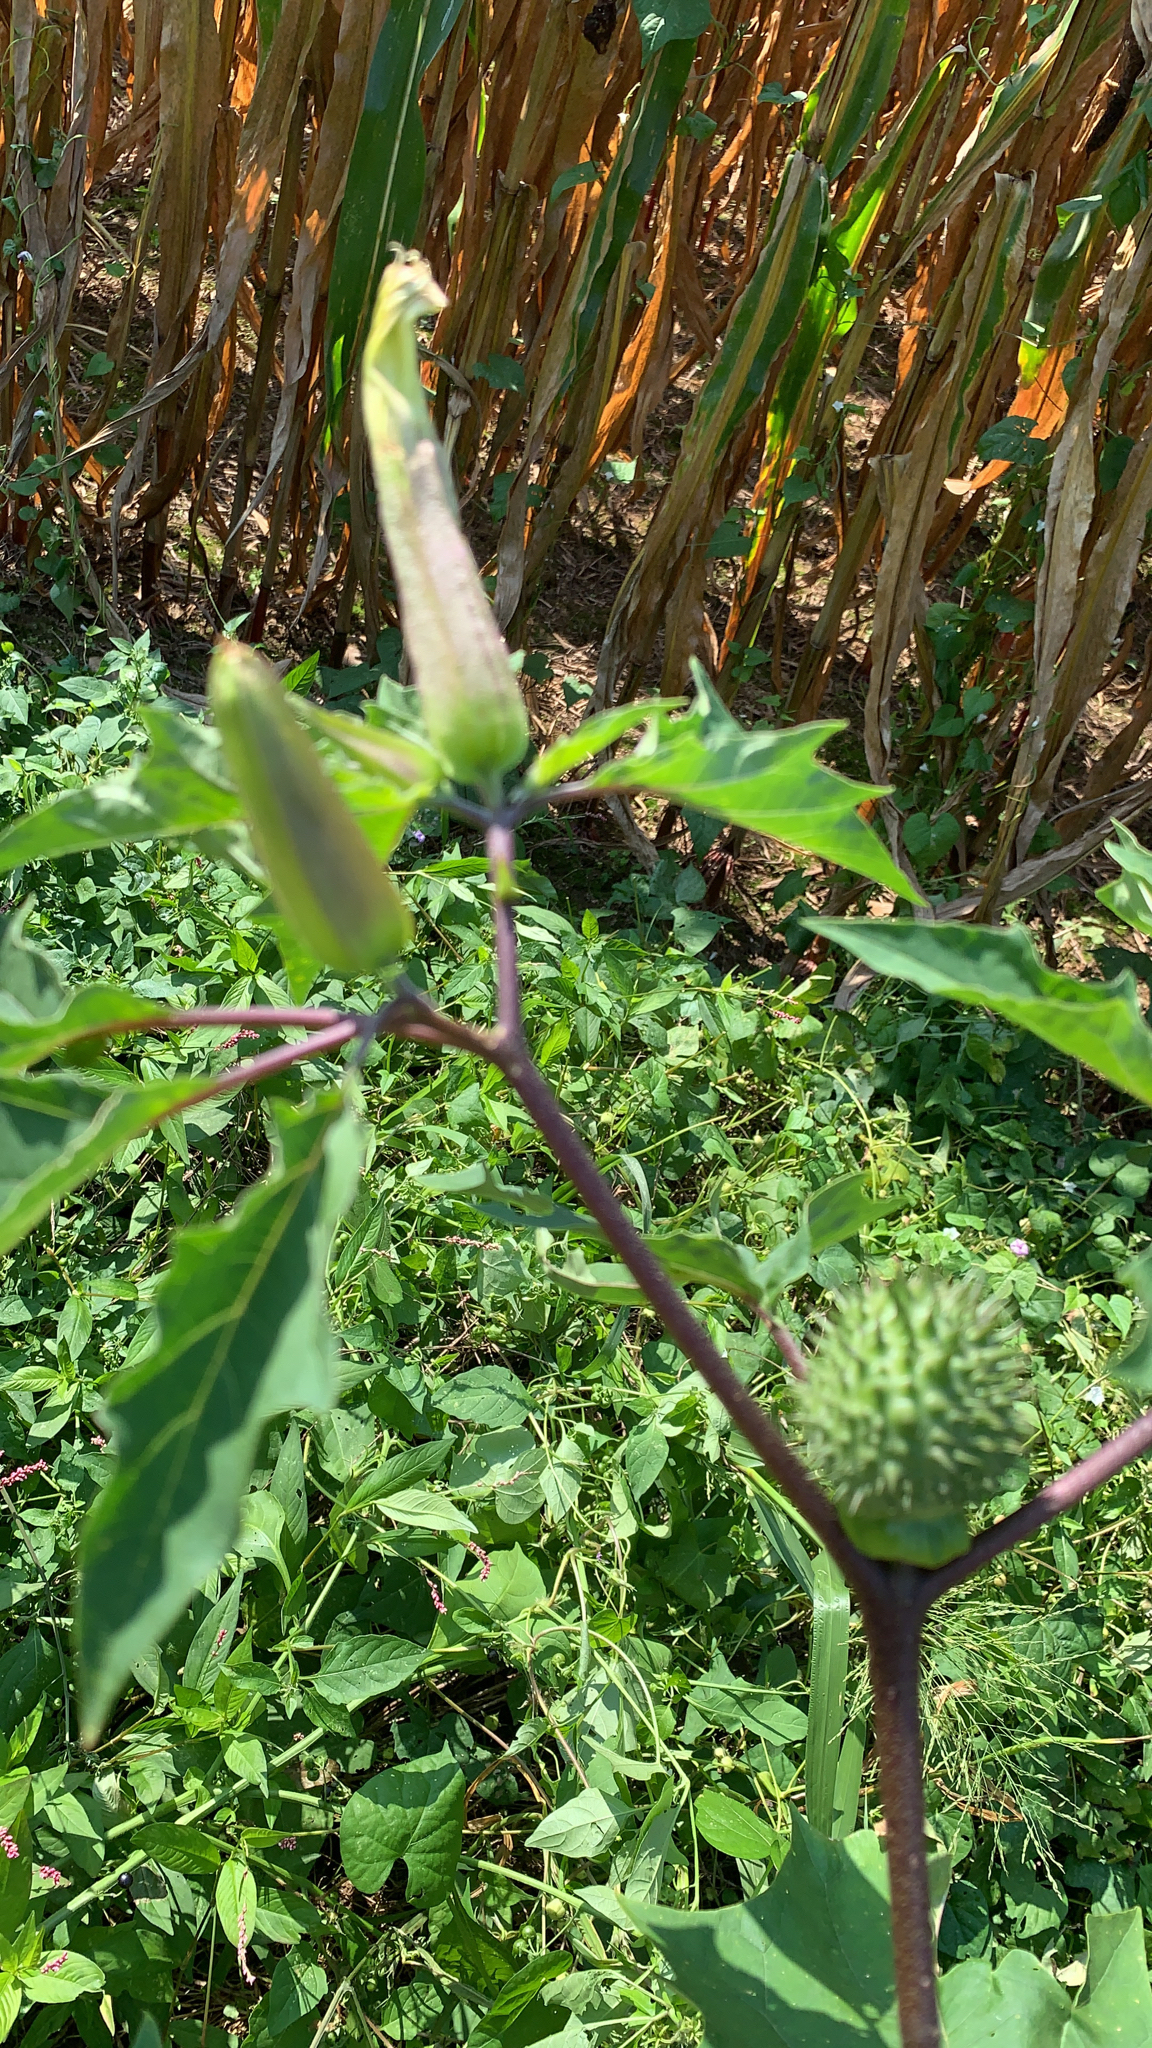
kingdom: Plantae
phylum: Tracheophyta
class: Magnoliopsida
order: Solanales
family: Solanaceae
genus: Datura
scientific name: Datura stramonium
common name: Thorn-apple
